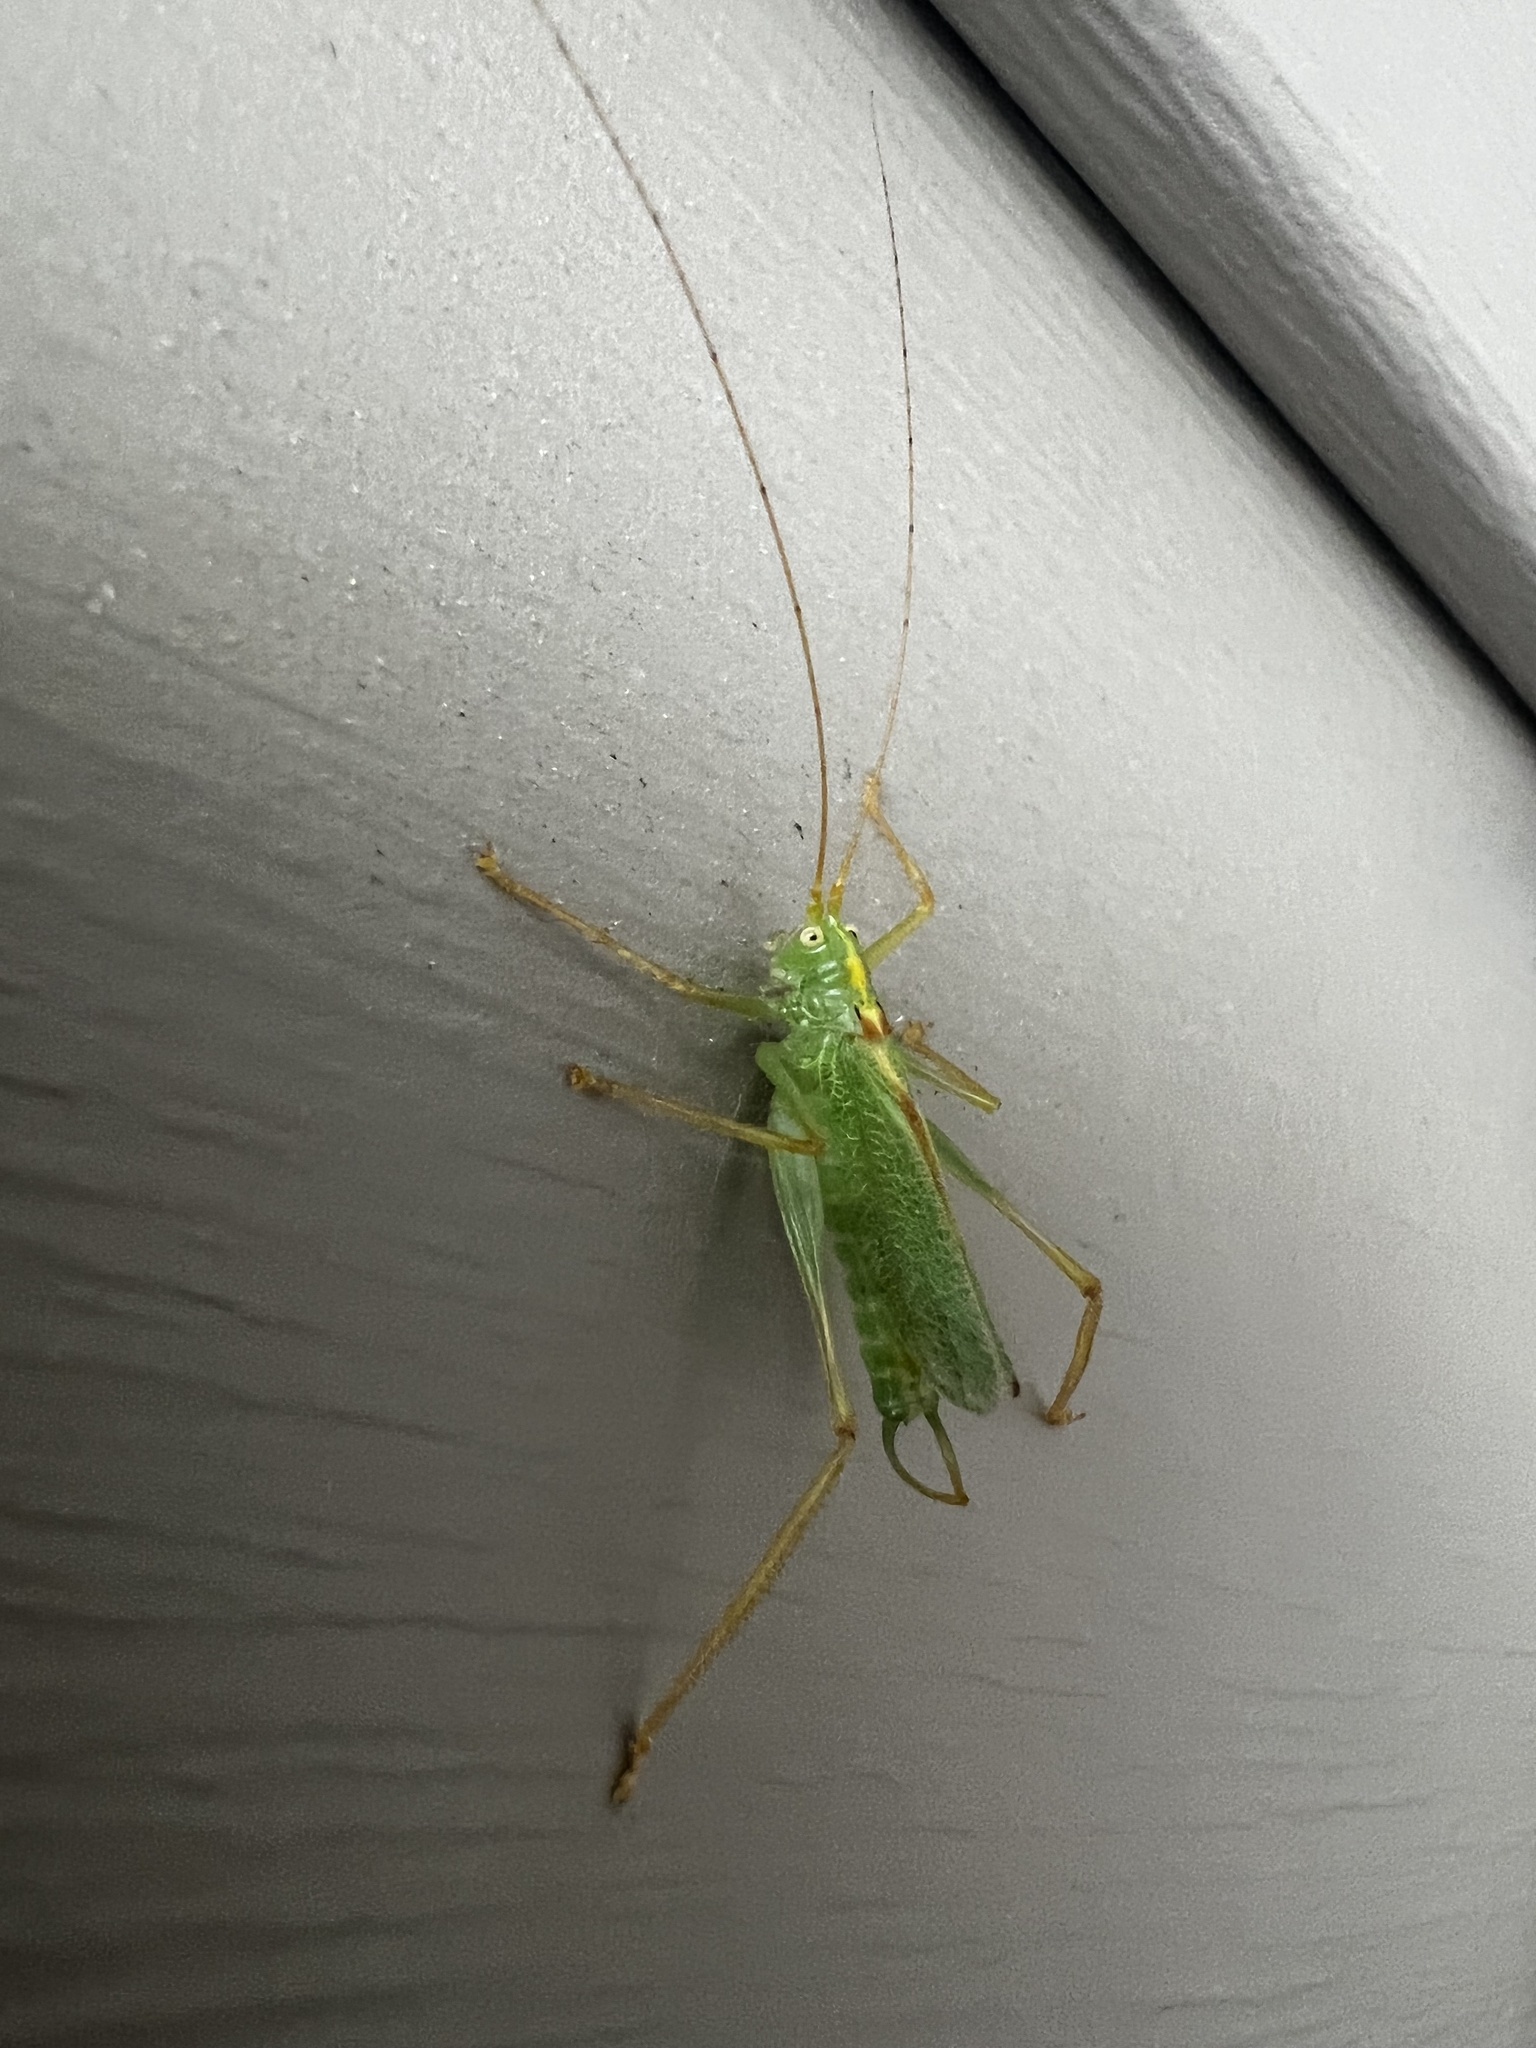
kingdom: Animalia
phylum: Arthropoda
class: Insecta
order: Orthoptera
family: Tettigoniidae
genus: Meconema
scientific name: Meconema thalassinum
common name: Oak bush-cricket
